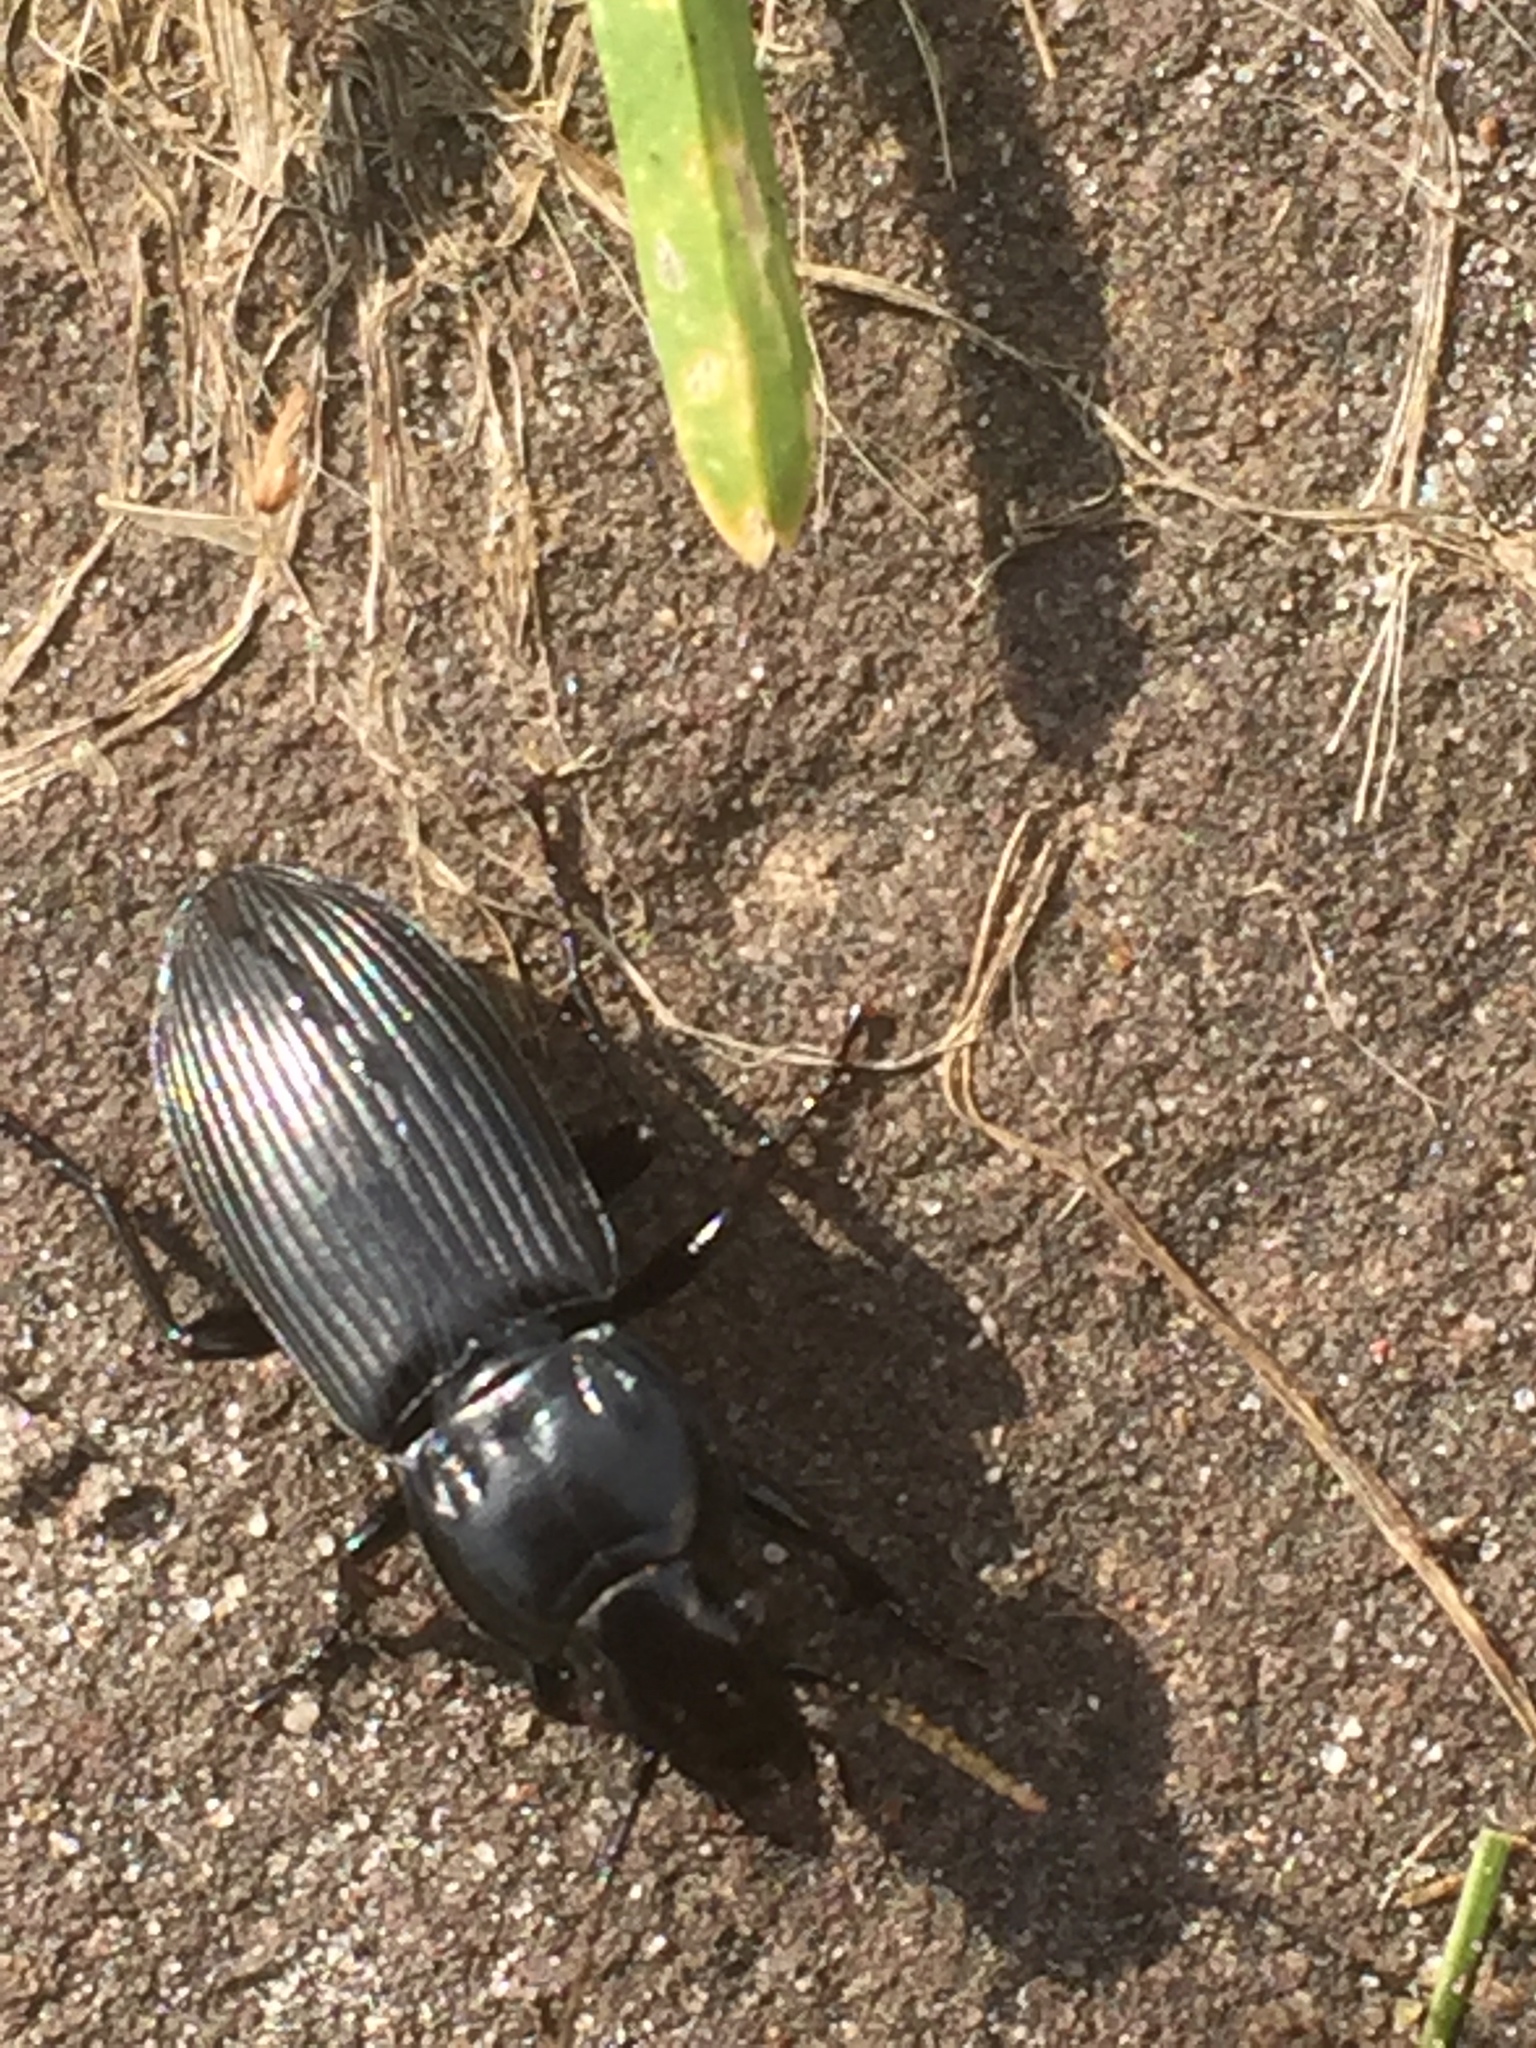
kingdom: Animalia
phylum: Arthropoda
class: Insecta
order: Coleoptera
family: Carabidae
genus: Pterostichus
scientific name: Pterostichus melanarius
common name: European dark harp ground beetle
